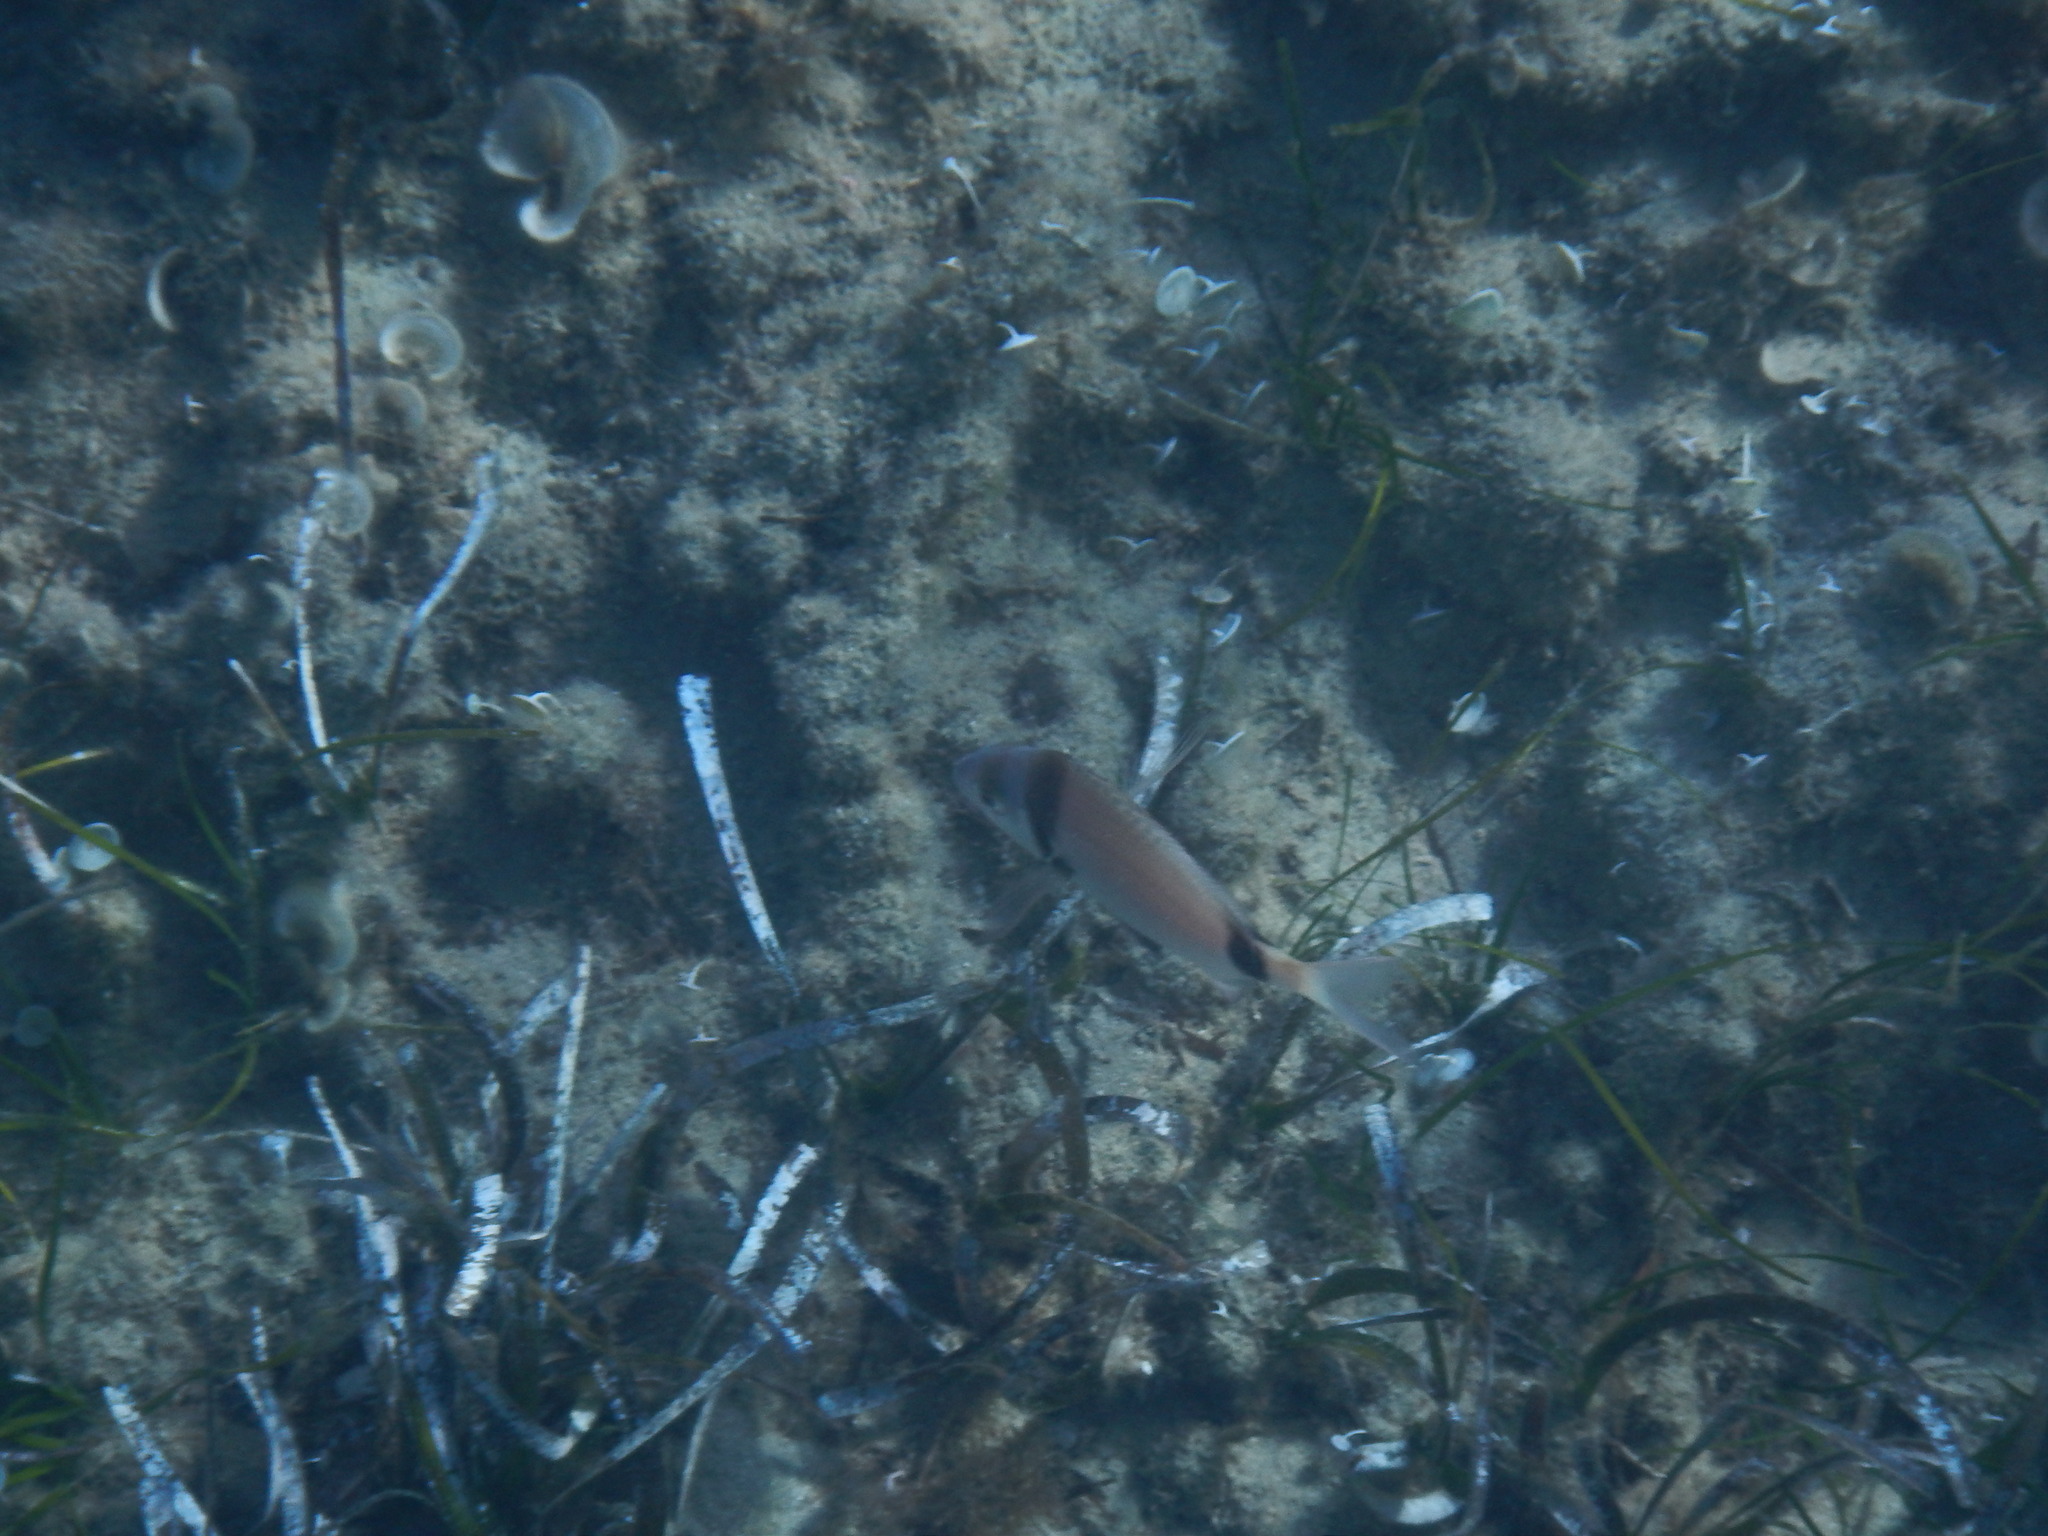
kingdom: Animalia
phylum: Chordata
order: Perciformes
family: Sparidae
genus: Diplodus
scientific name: Diplodus vulgaris
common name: Common two-banded seabream
